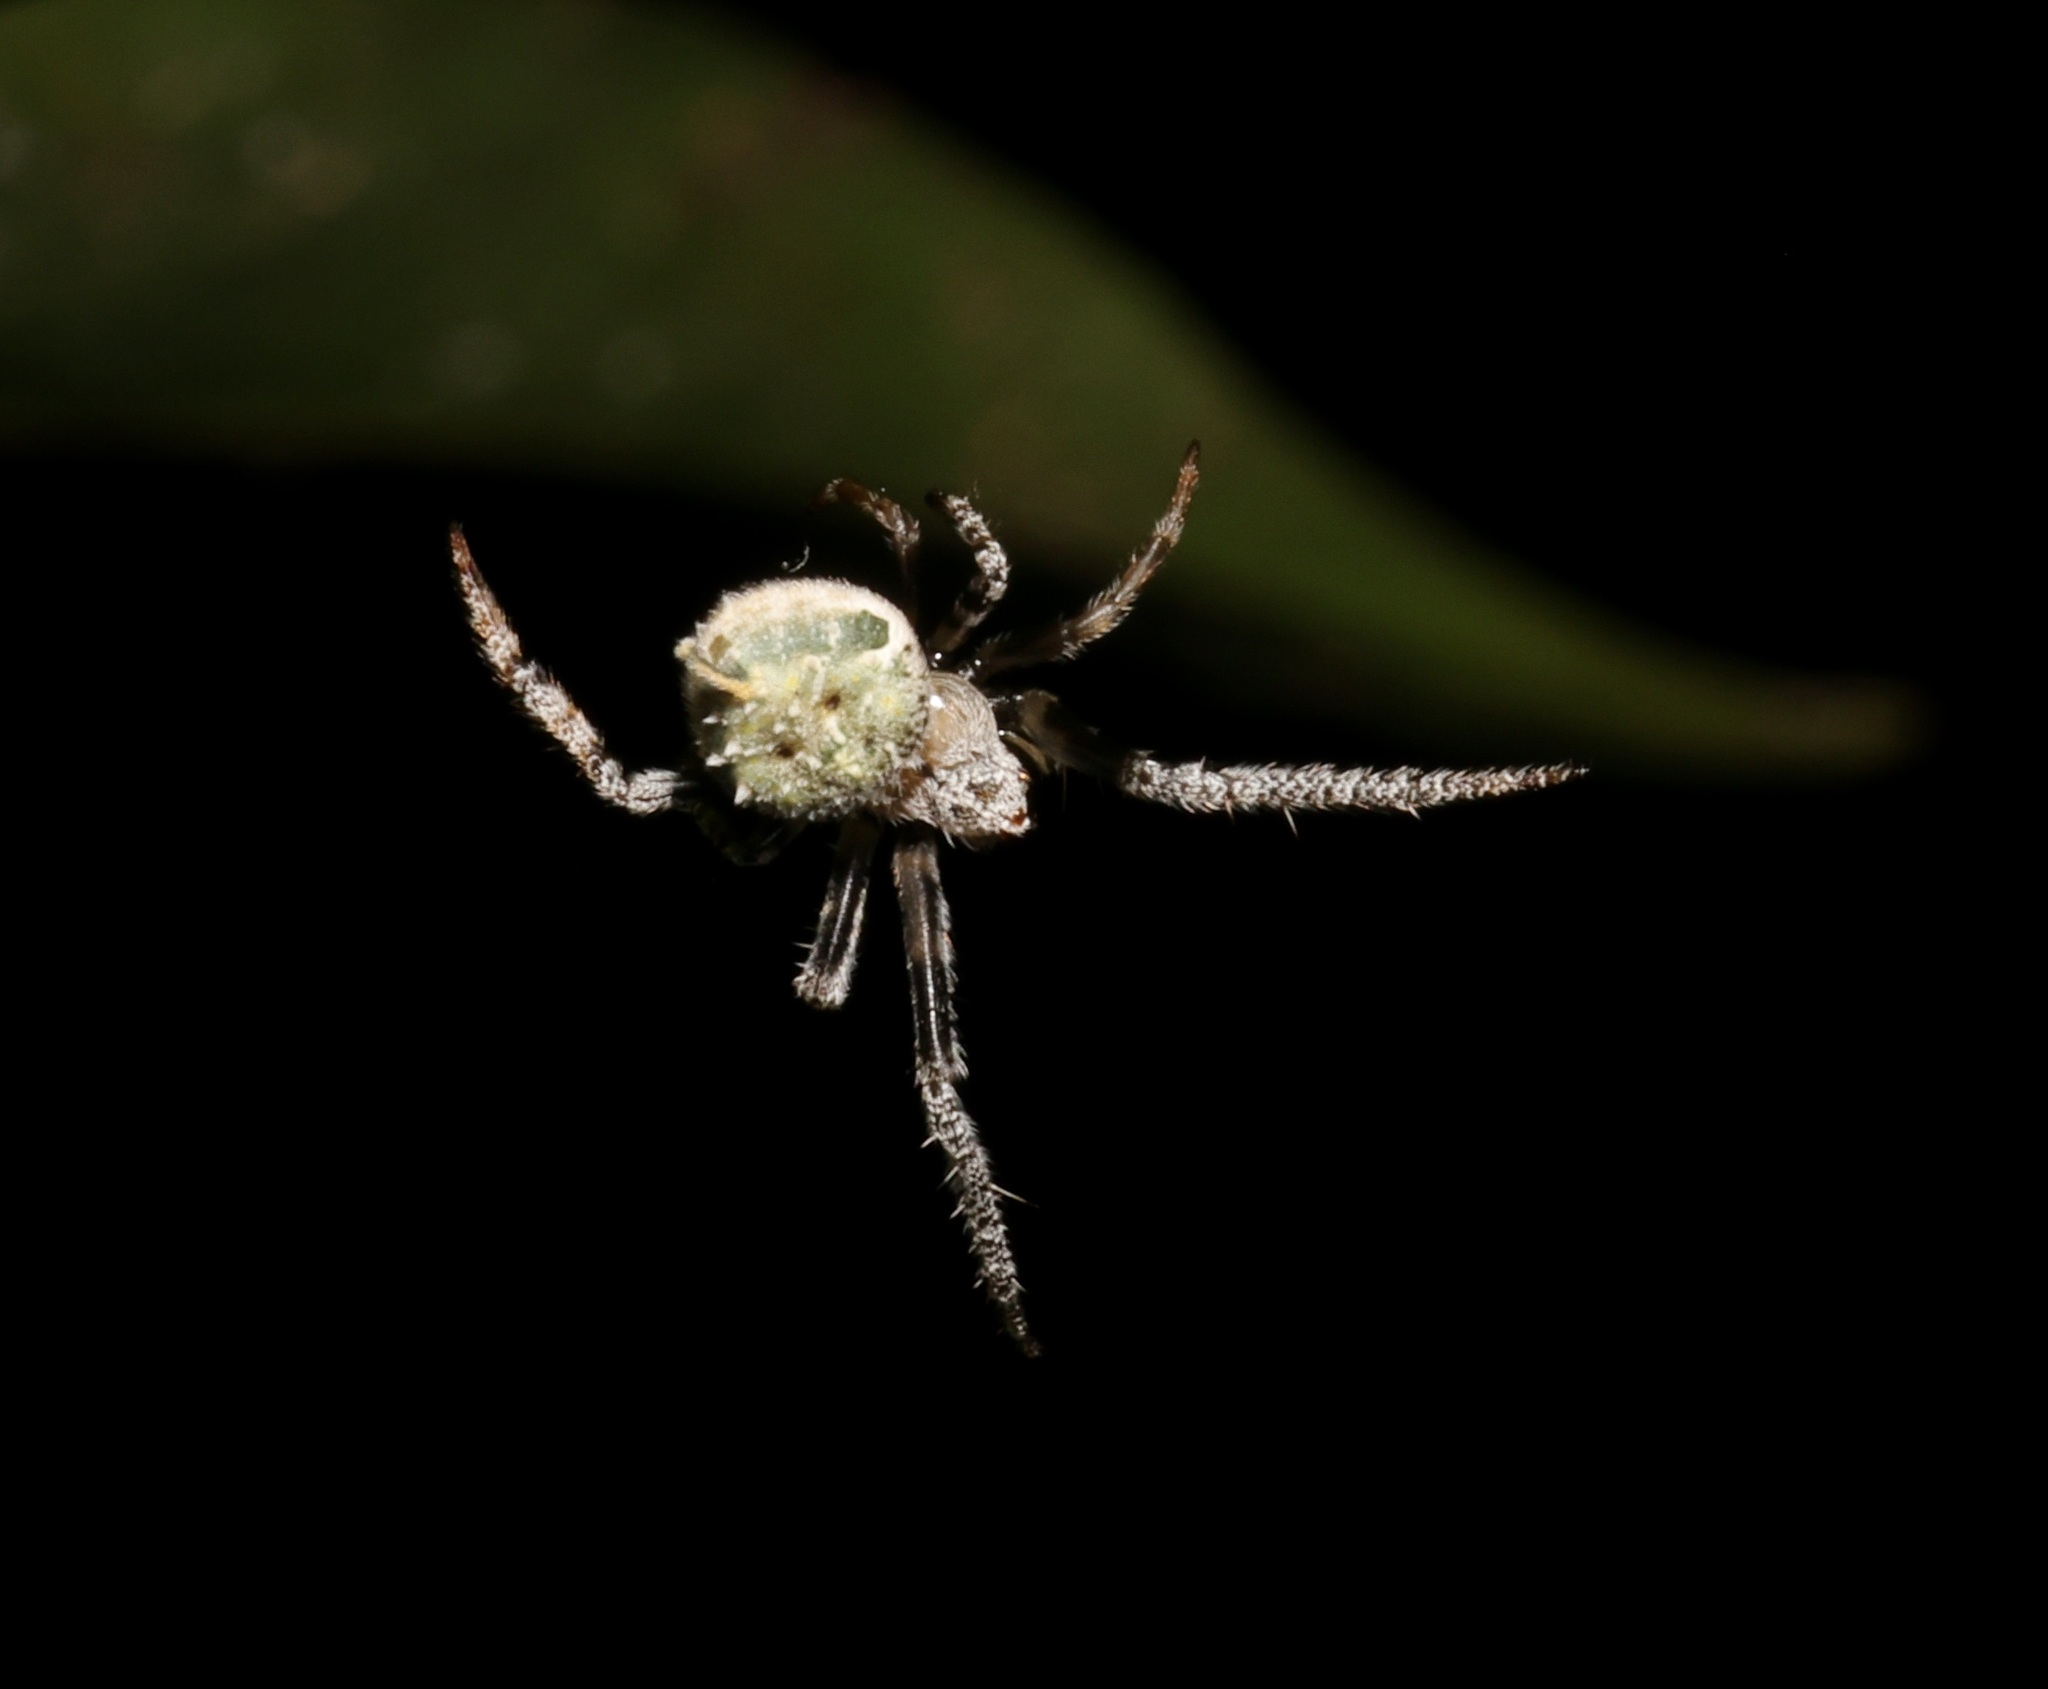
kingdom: Animalia
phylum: Arthropoda
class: Arachnida
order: Araneae
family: Araneidae
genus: Eriovixia
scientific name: Eriovixia laglaizei
